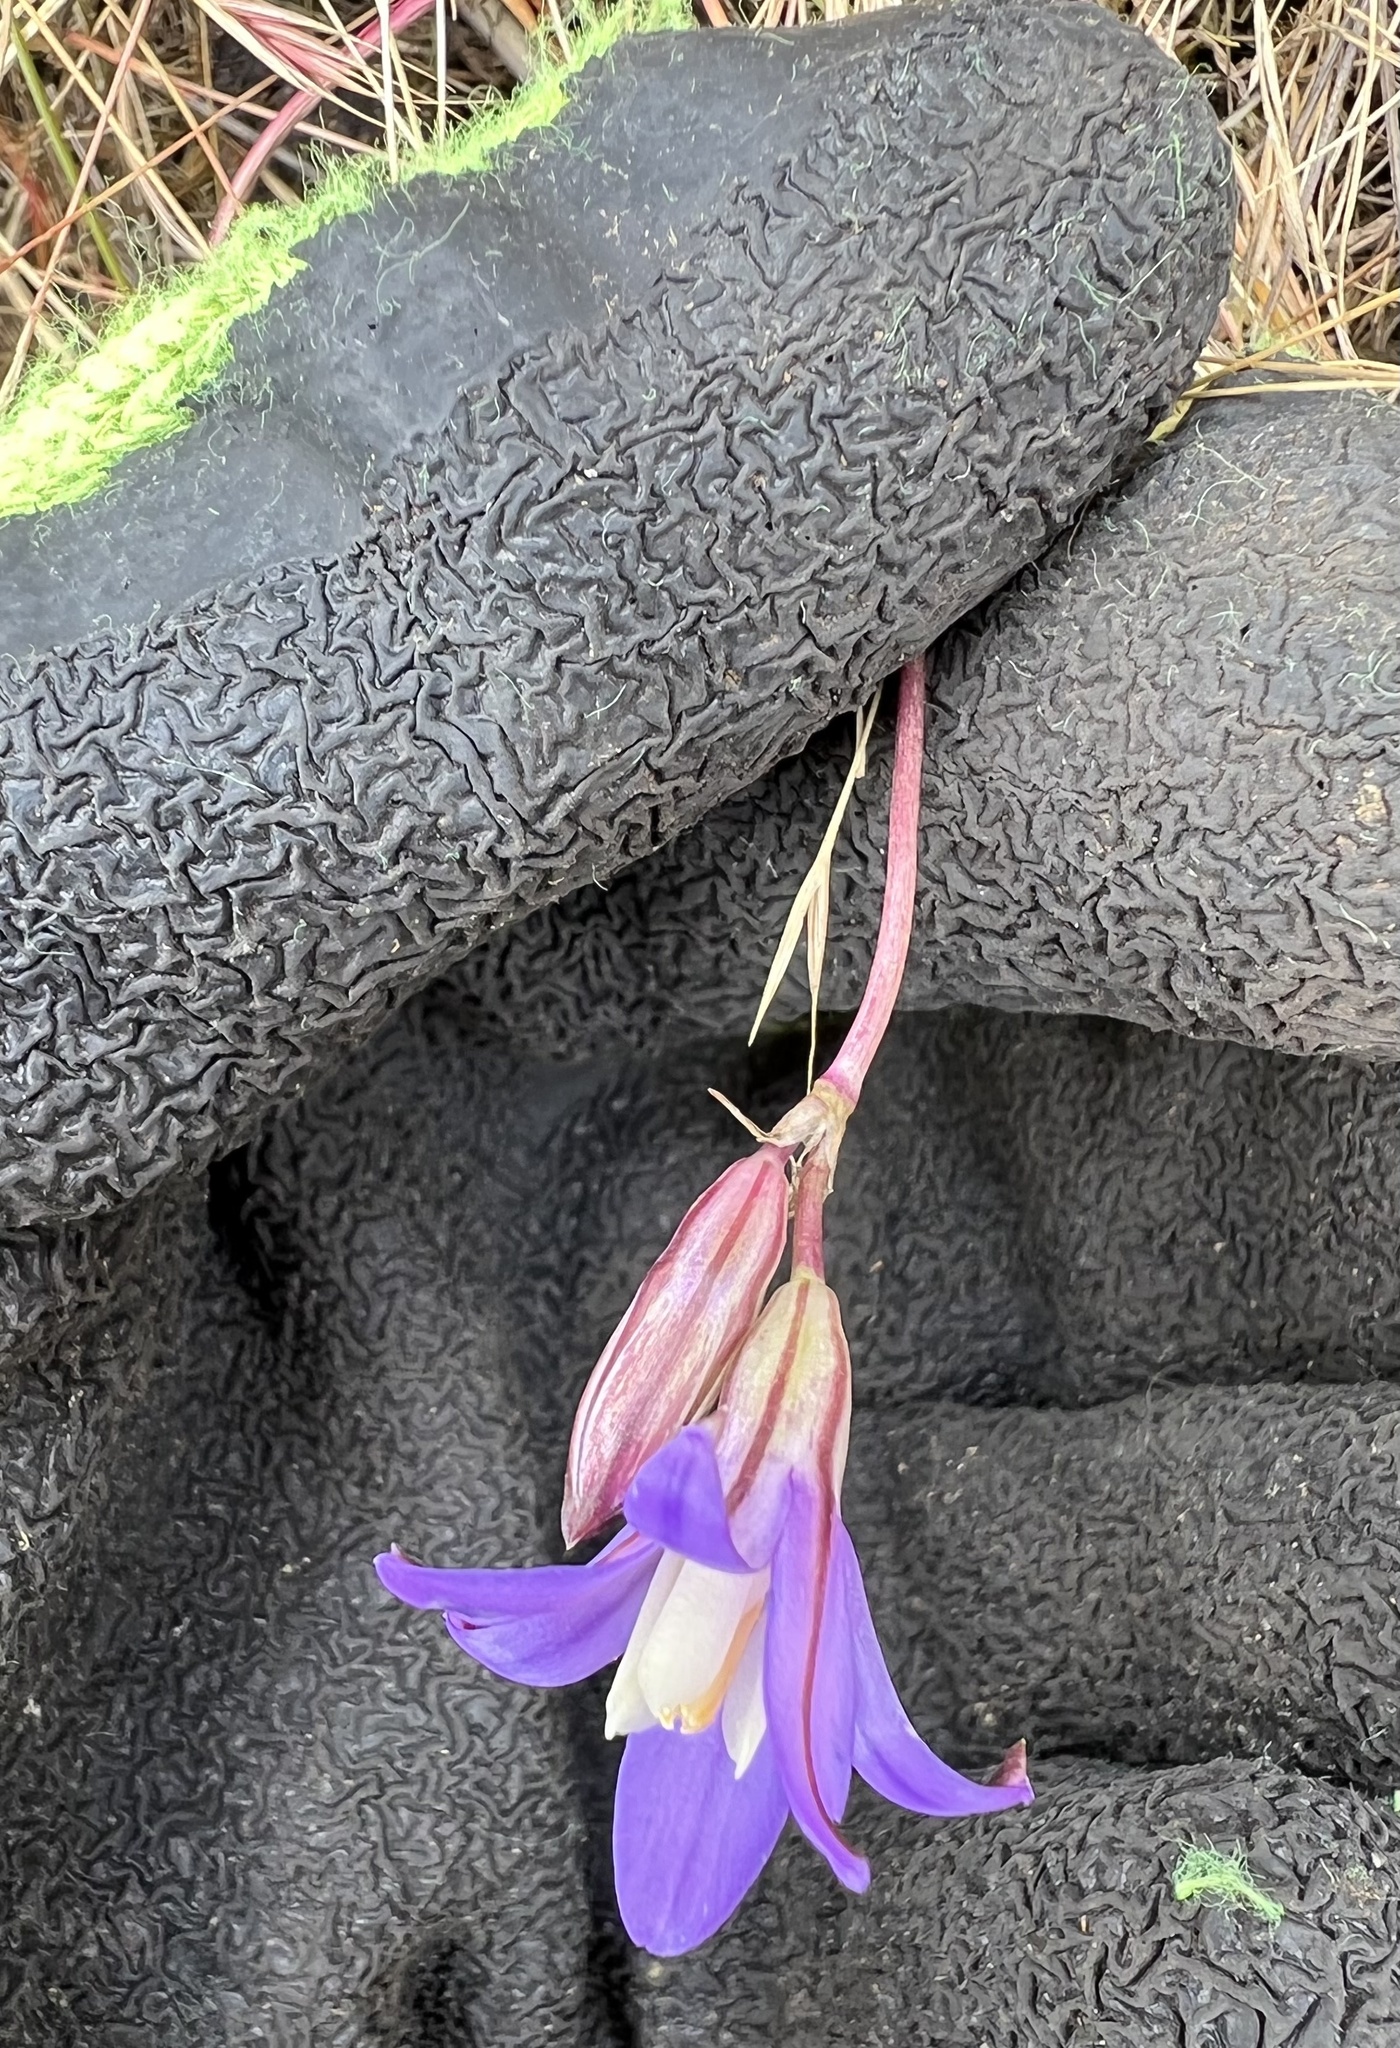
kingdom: Plantae
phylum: Tracheophyta
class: Liliopsida
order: Asparagales
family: Asparagaceae
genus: Brodiaea
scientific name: Brodiaea coronaria
